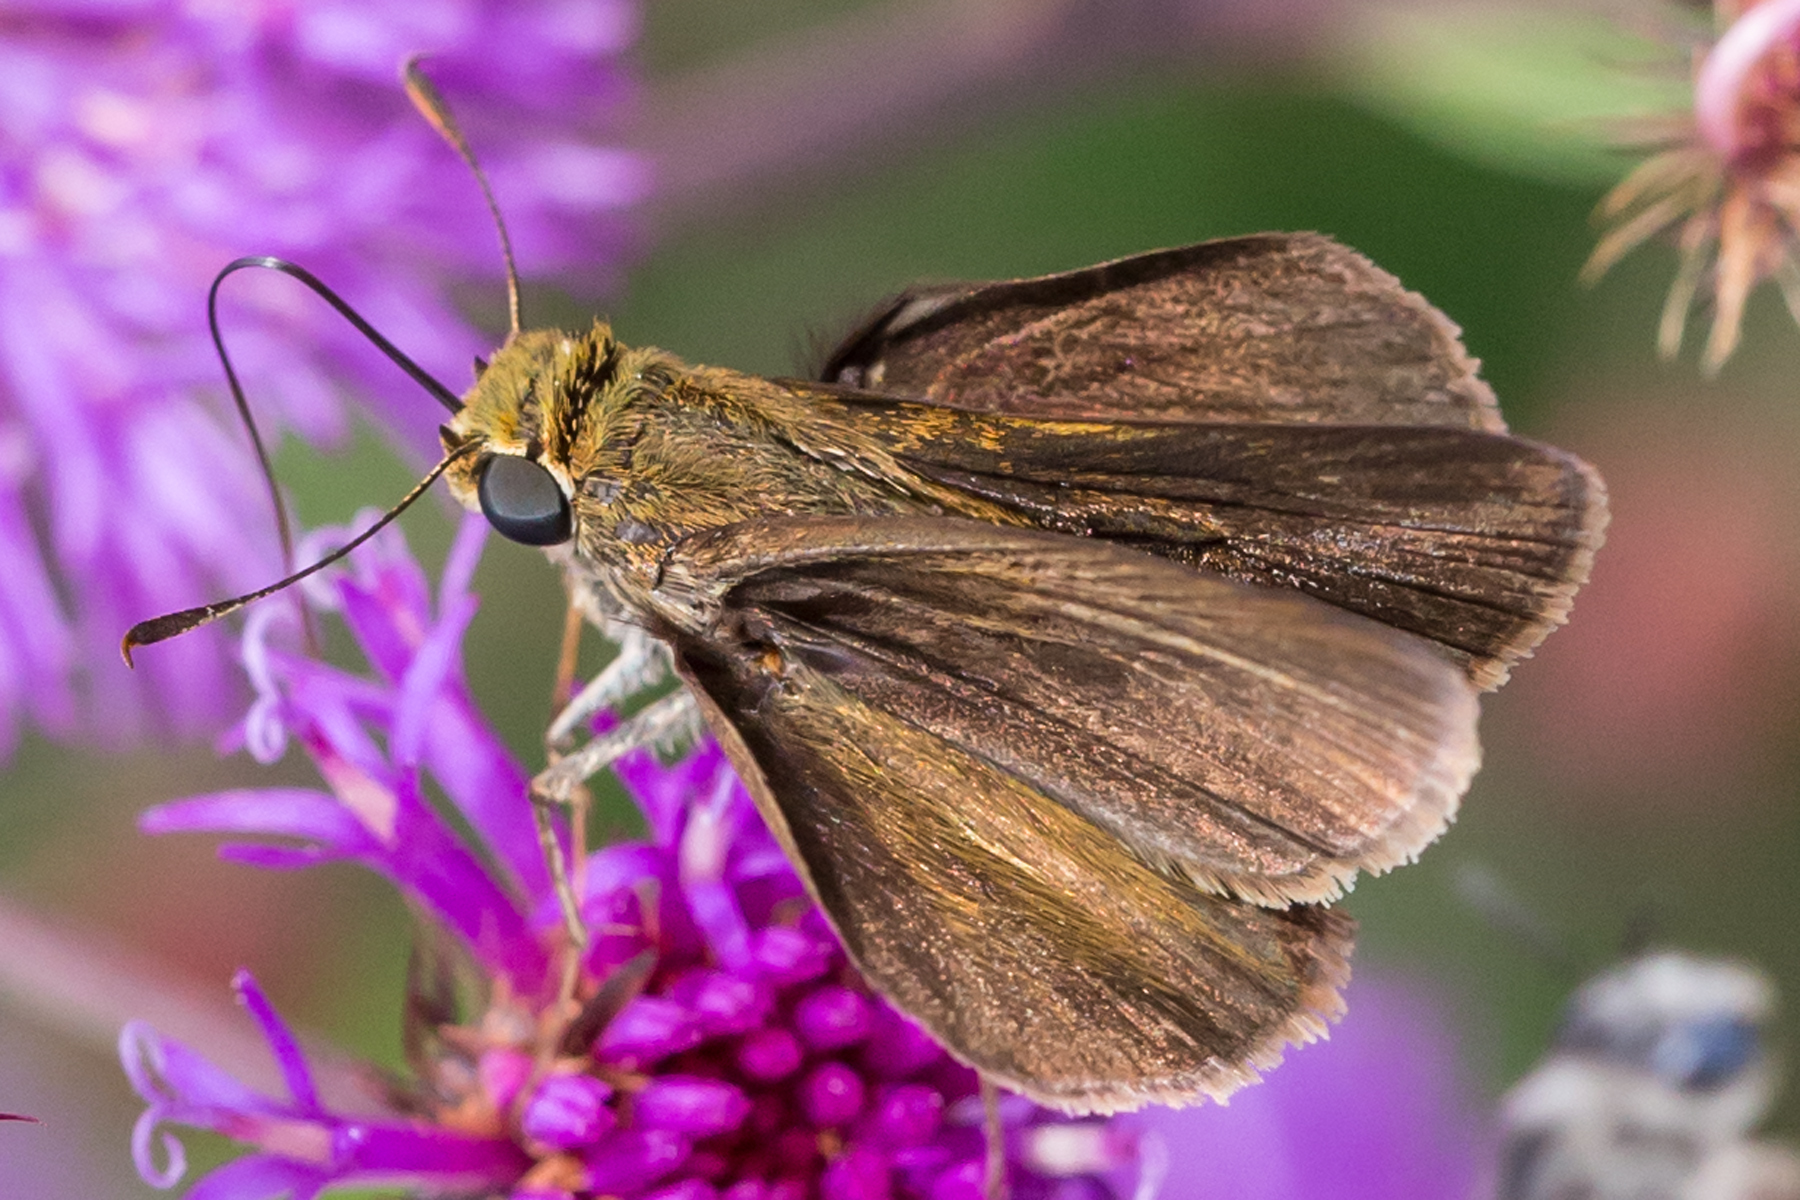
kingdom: Animalia
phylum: Arthropoda
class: Insecta
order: Lepidoptera
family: Hesperiidae
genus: Euphyes
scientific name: Euphyes vestris
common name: Dun skipper
